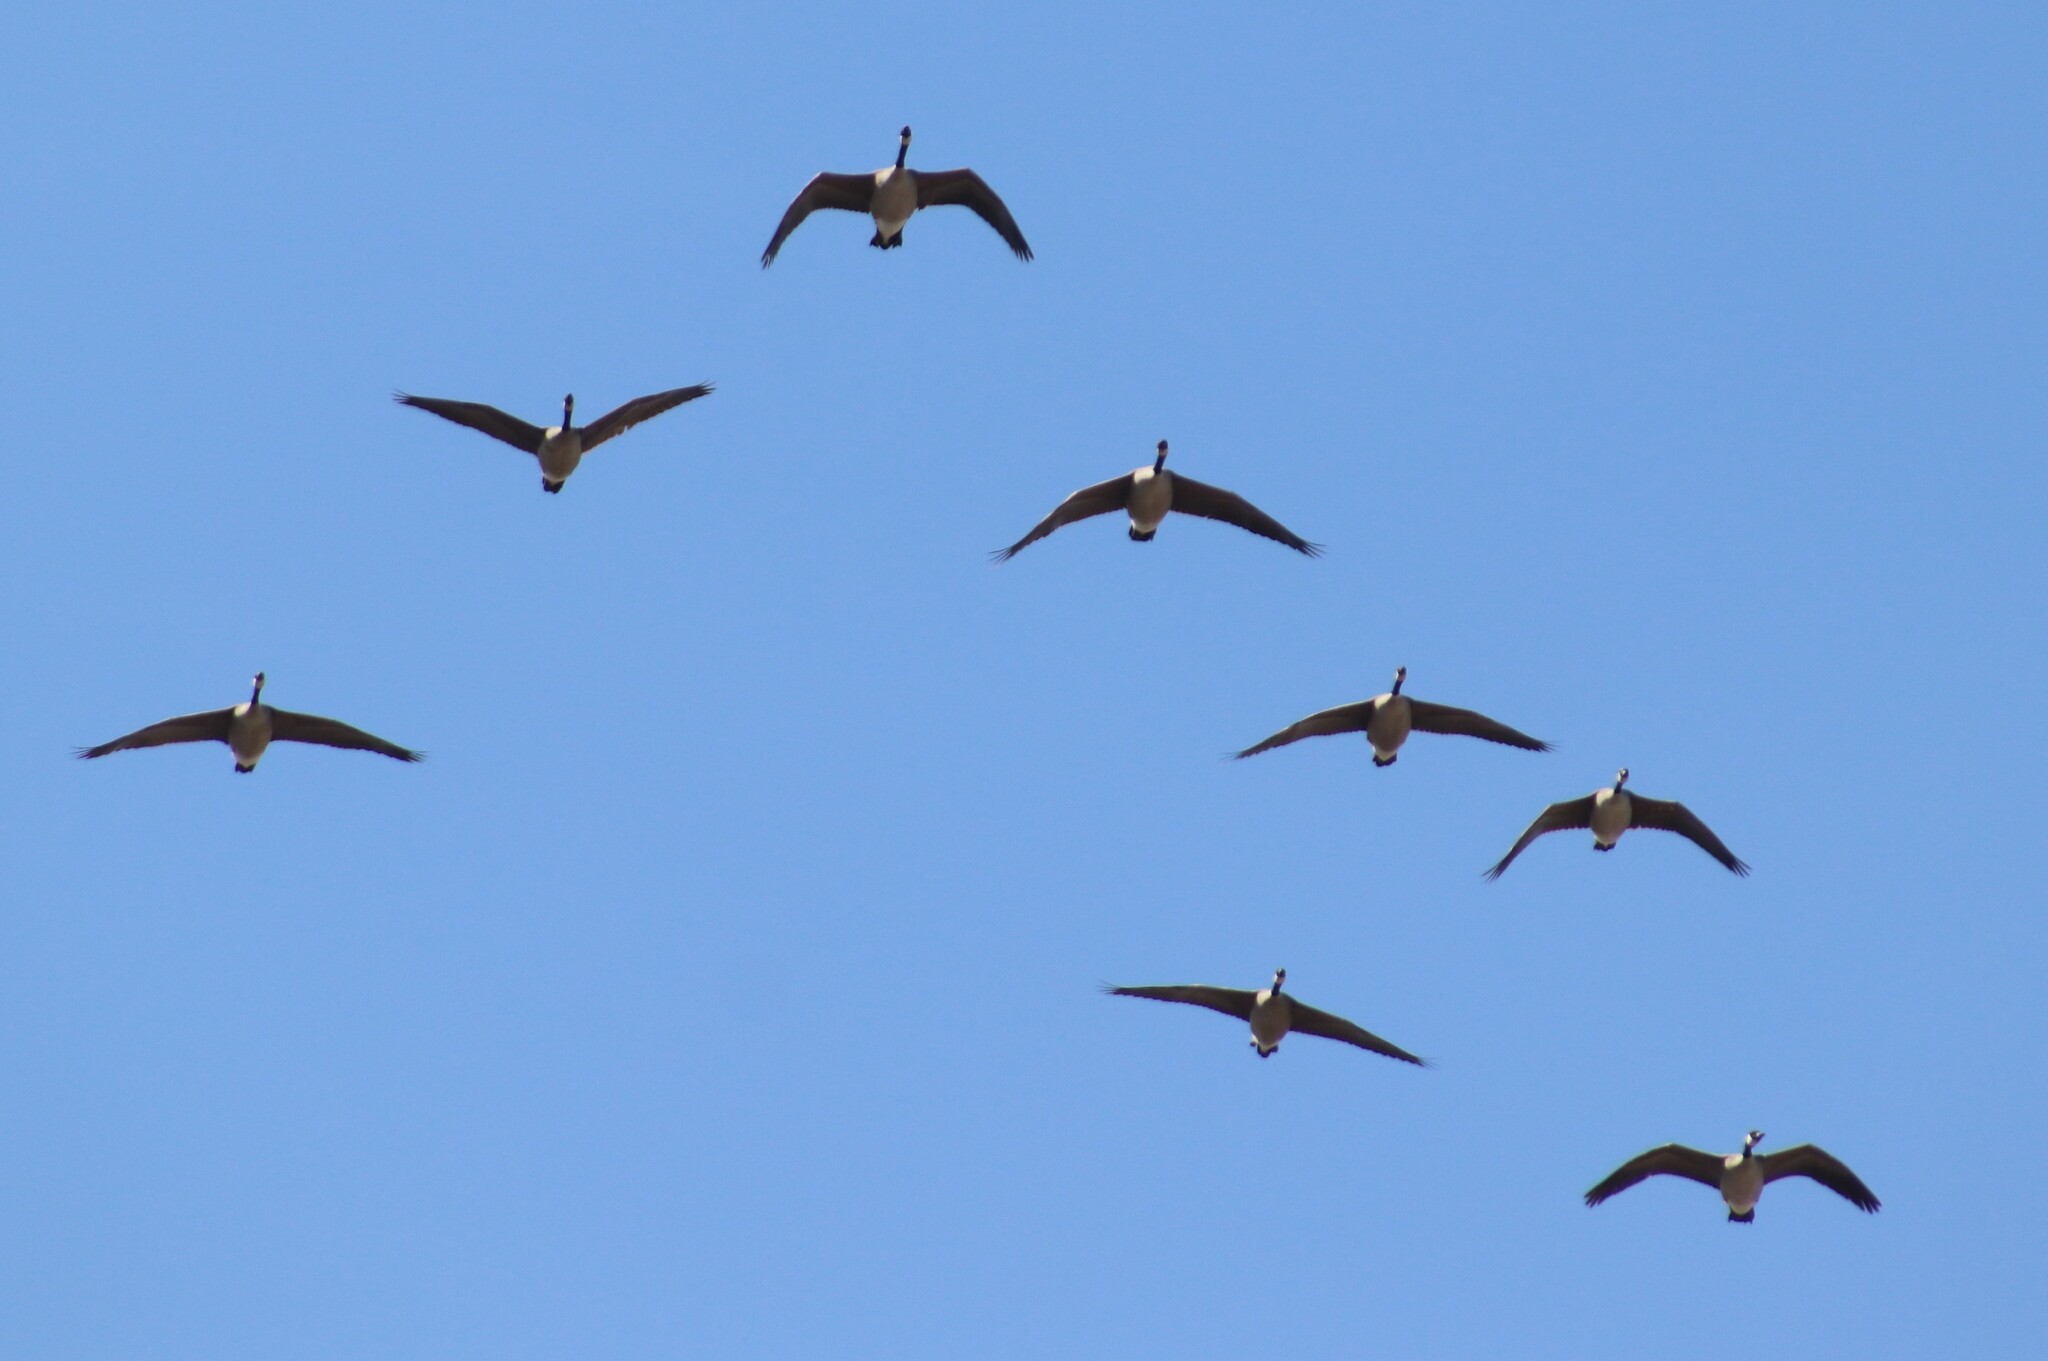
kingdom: Animalia
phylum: Chordata
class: Aves
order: Anseriformes
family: Anatidae
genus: Branta
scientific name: Branta canadensis
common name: Canada goose
